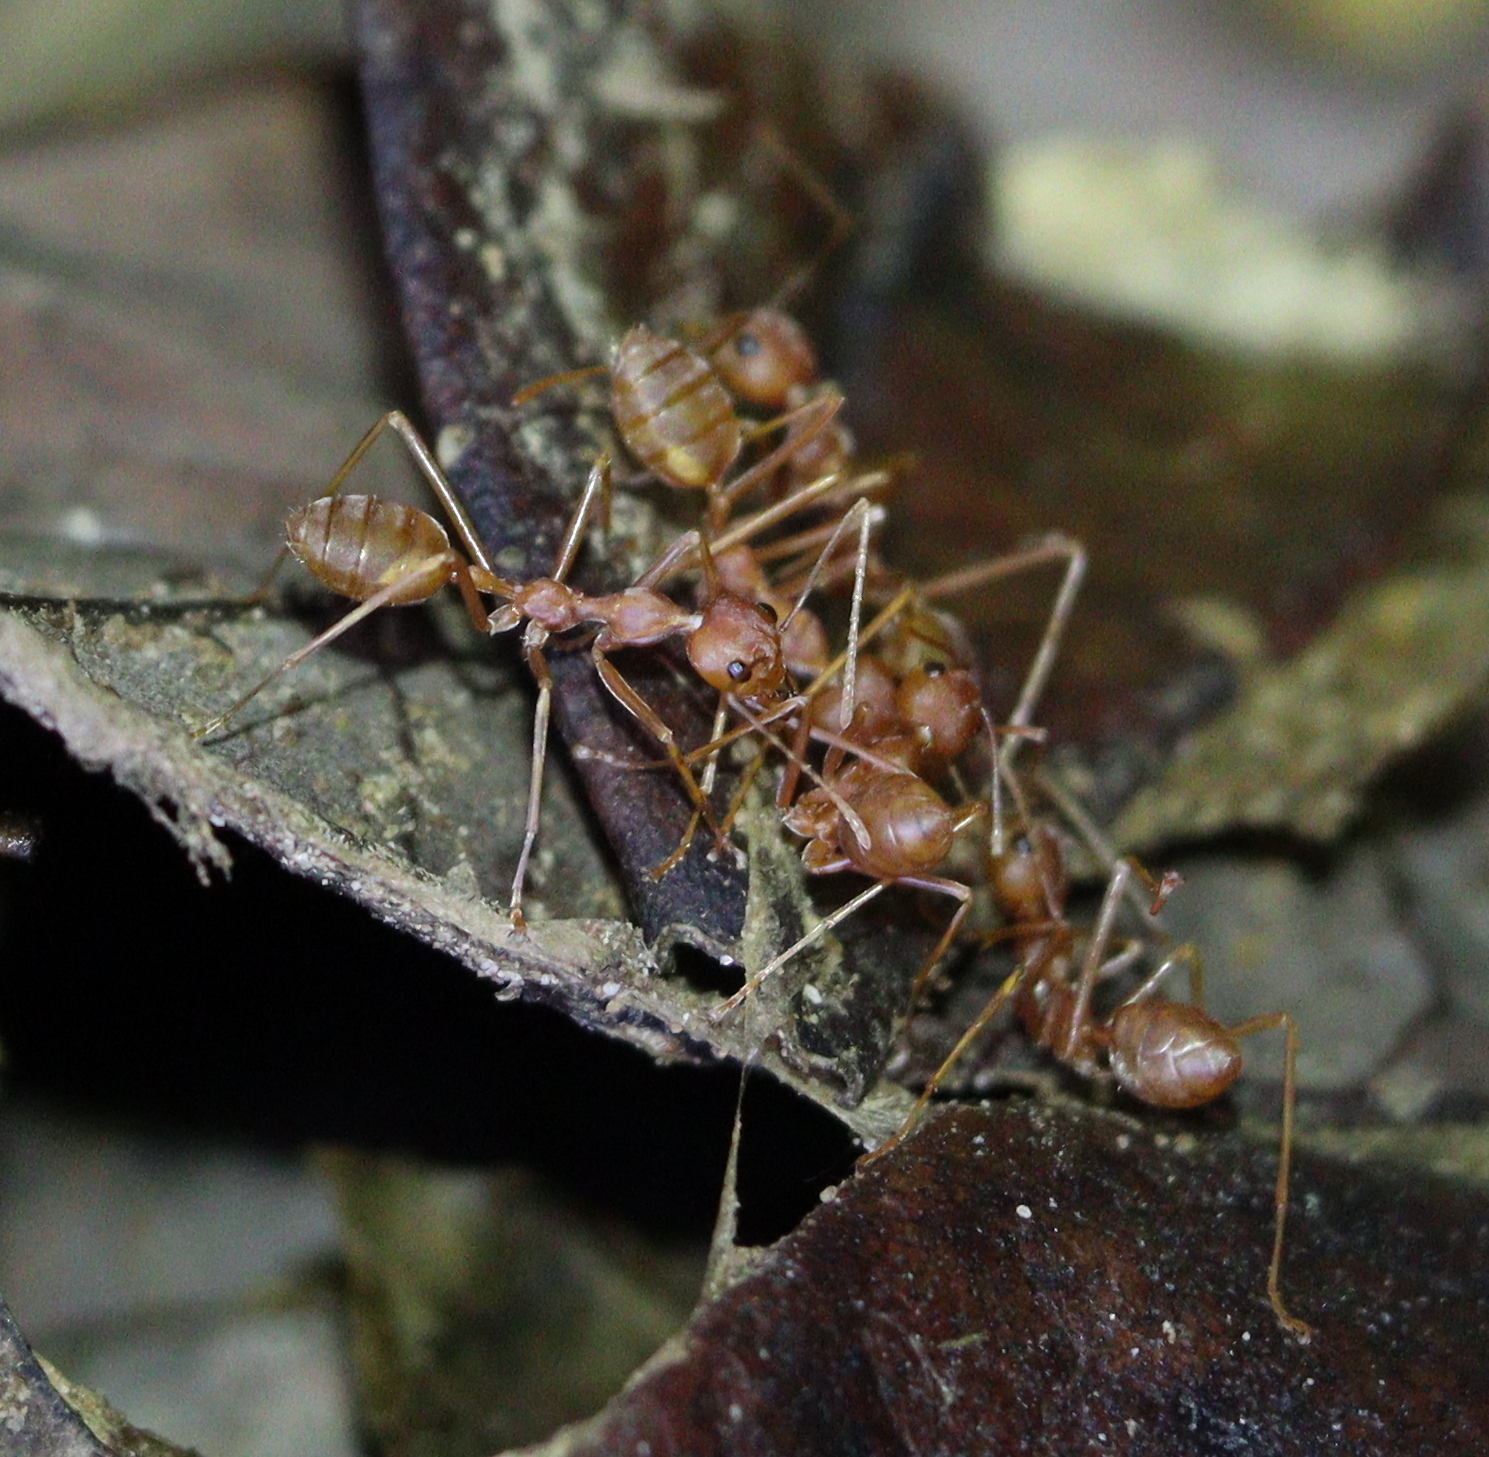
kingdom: Animalia
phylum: Arthropoda
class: Insecta
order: Hymenoptera
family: Formicidae
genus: Oecophylla
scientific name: Oecophylla smaragdina
